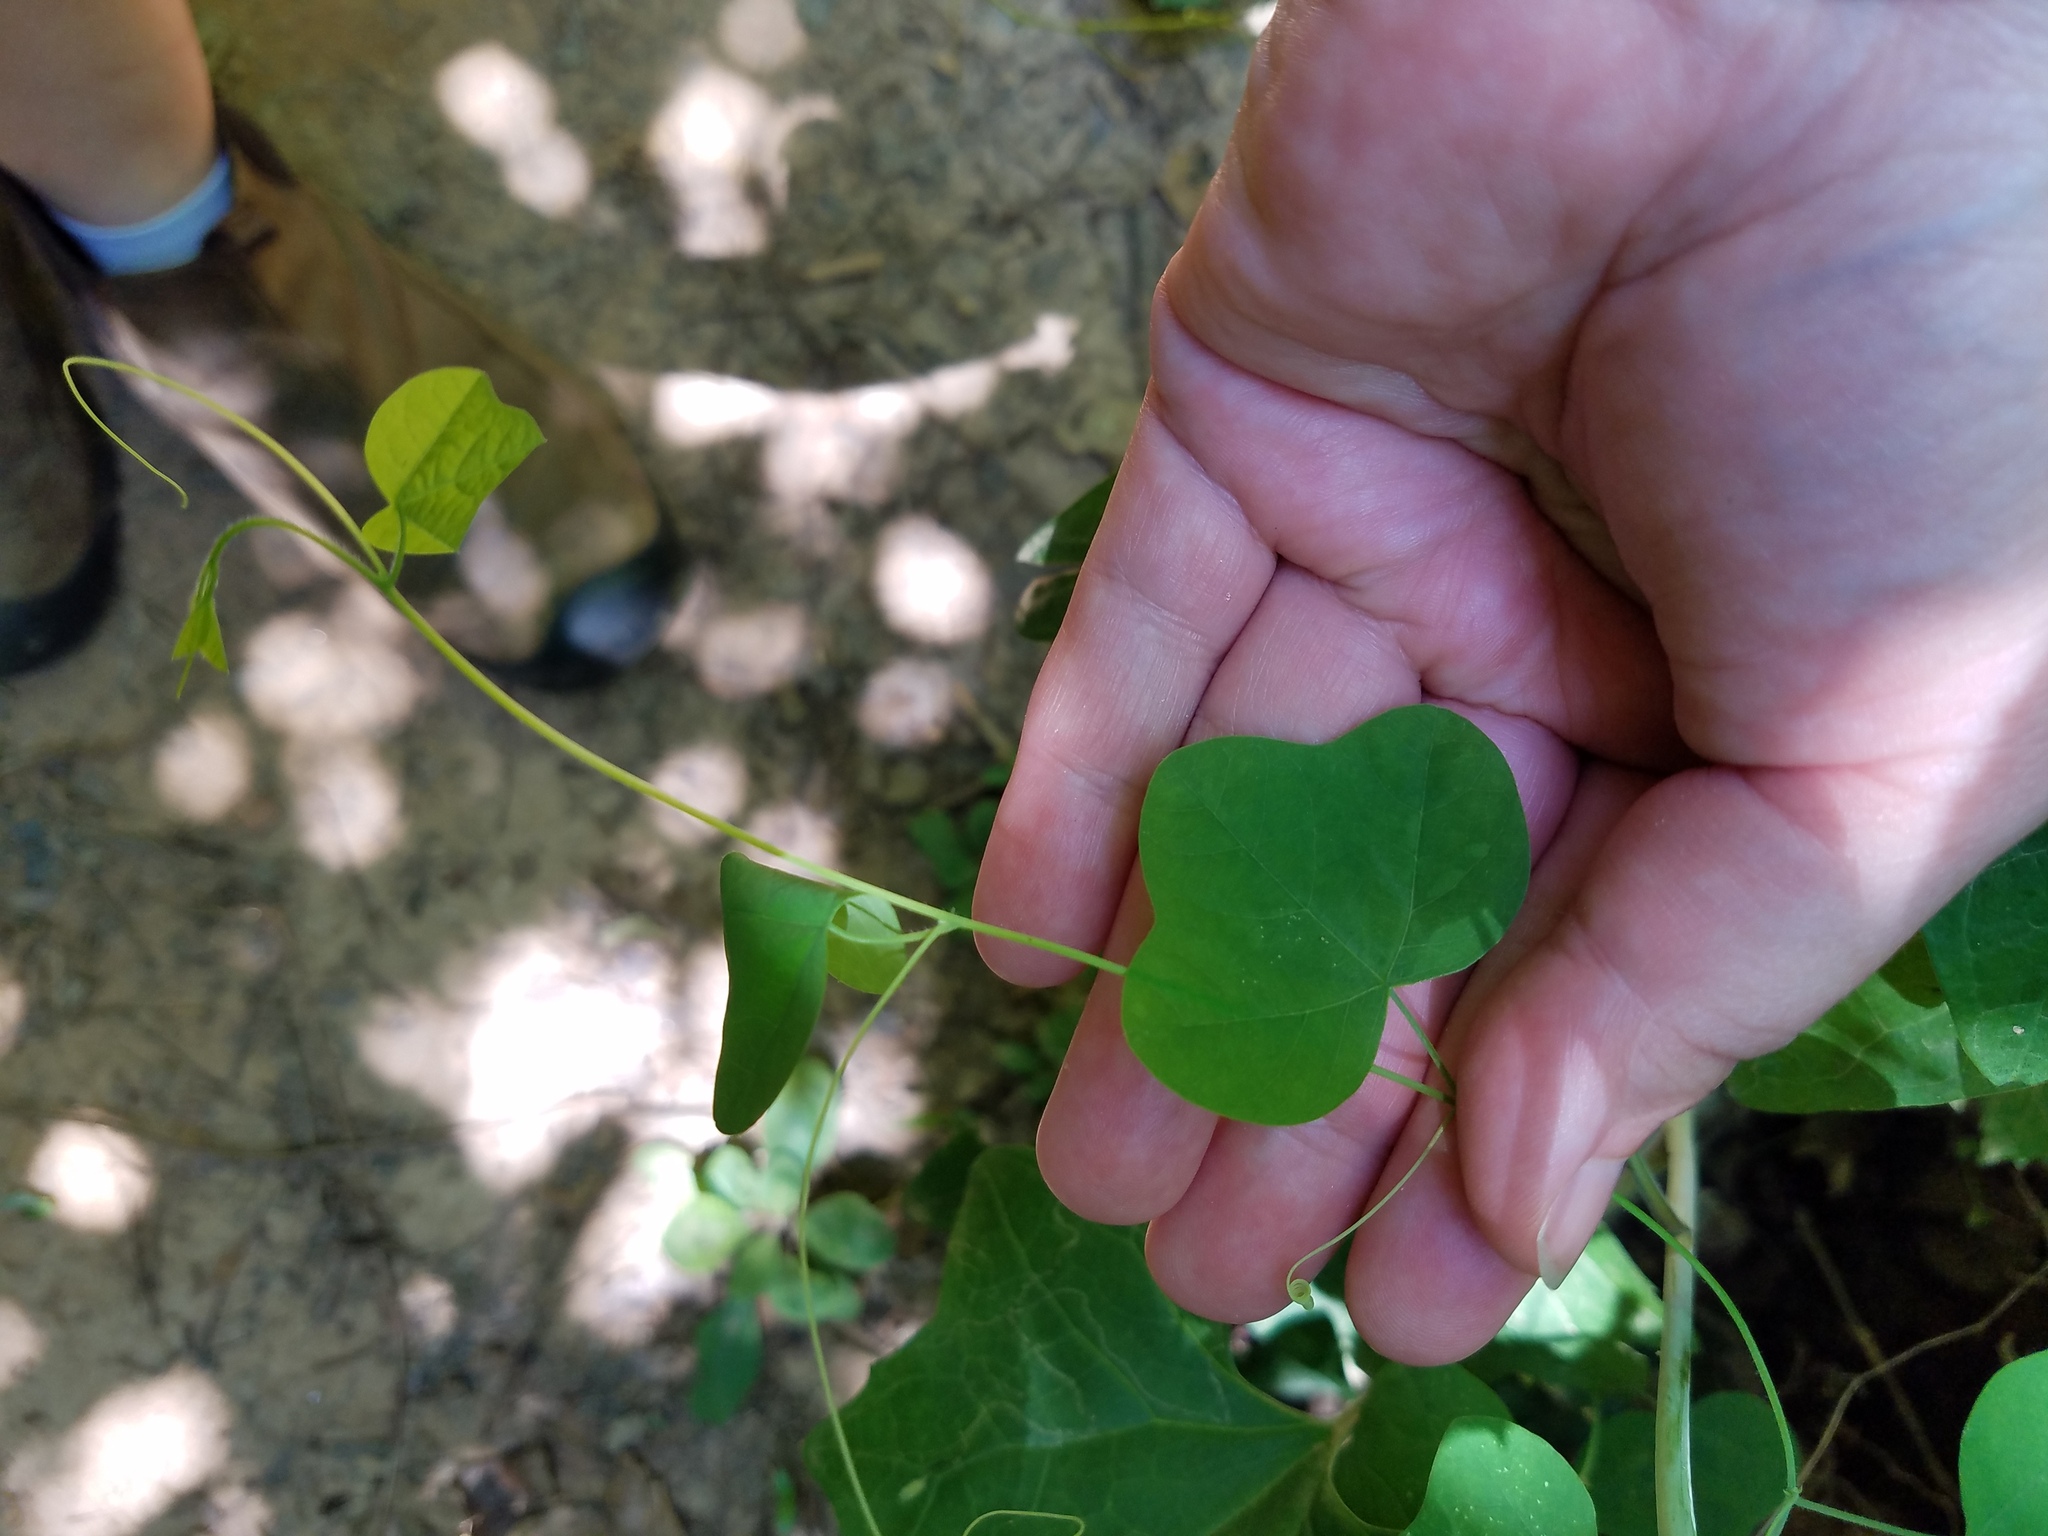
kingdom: Plantae
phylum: Tracheophyta
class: Magnoliopsida
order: Malpighiales
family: Passifloraceae
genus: Passiflora
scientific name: Passiflora lutea
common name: Yellow passionflower
